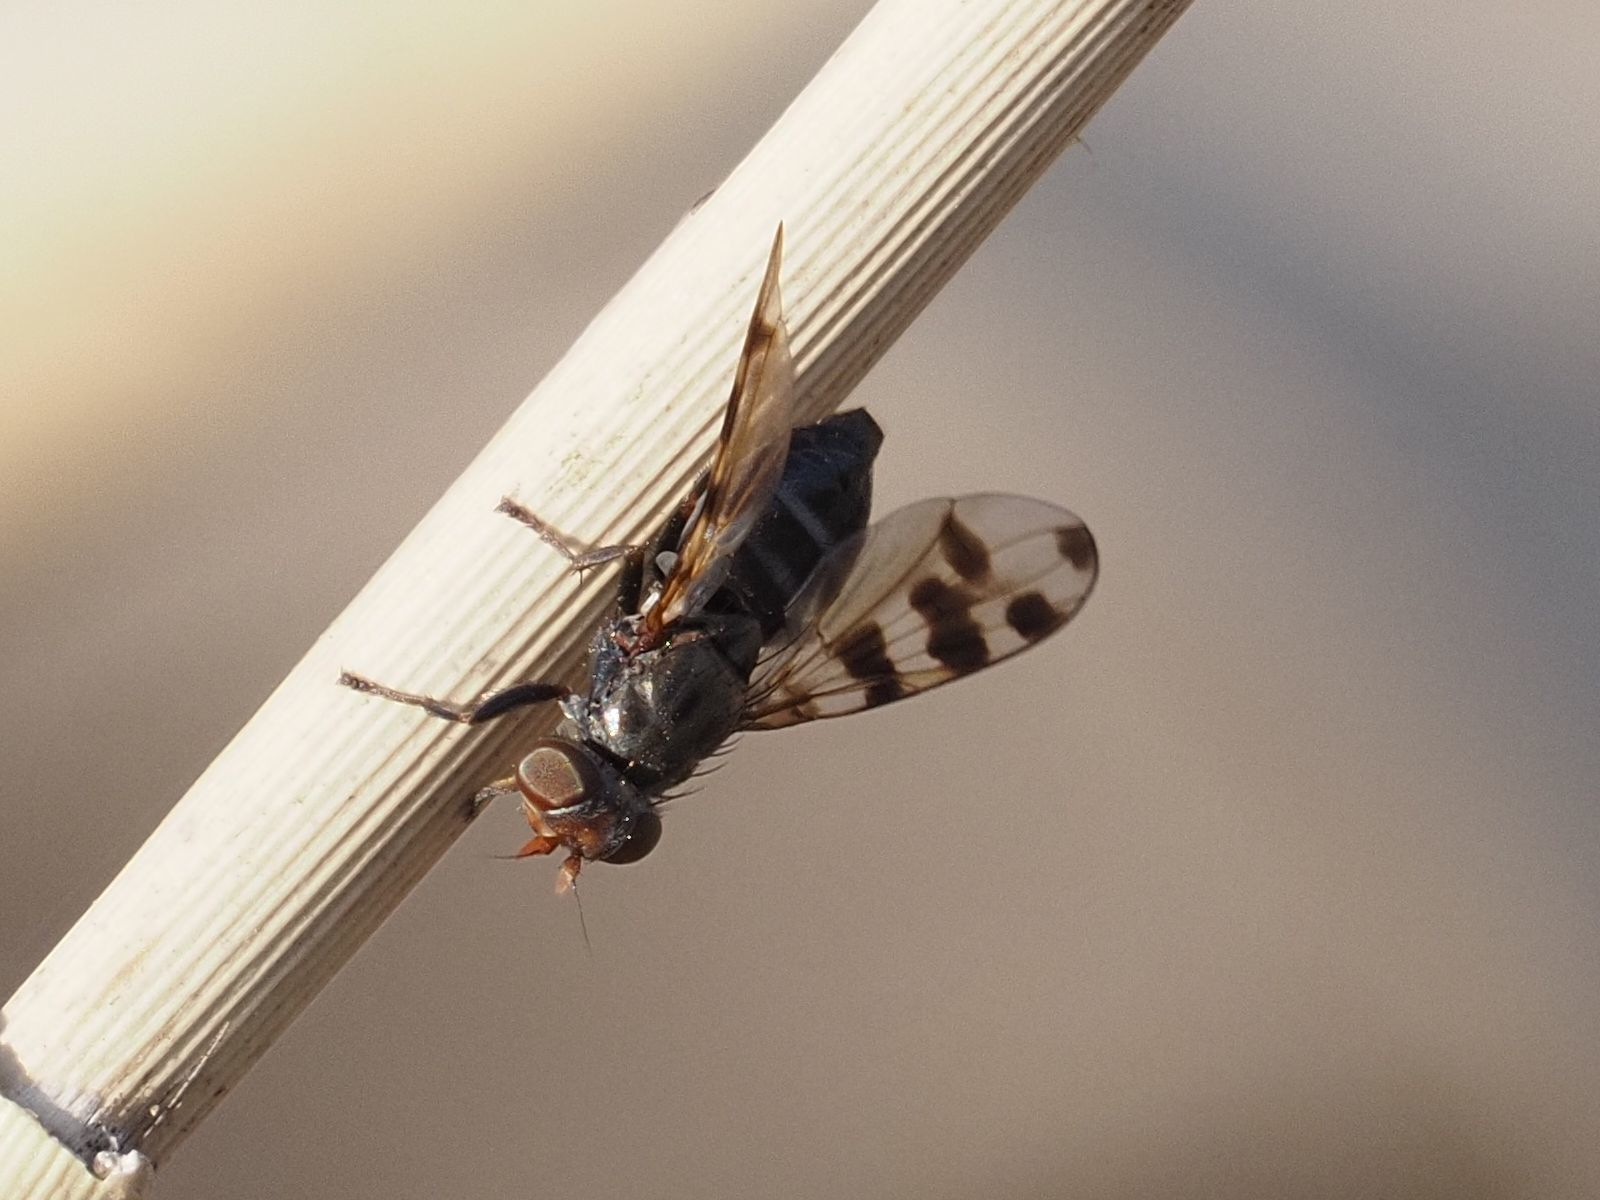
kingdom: Animalia
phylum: Arthropoda
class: Insecta
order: Diptera
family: Ulidiidae
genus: Ceroxys
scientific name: Ceroxys hyalinata
